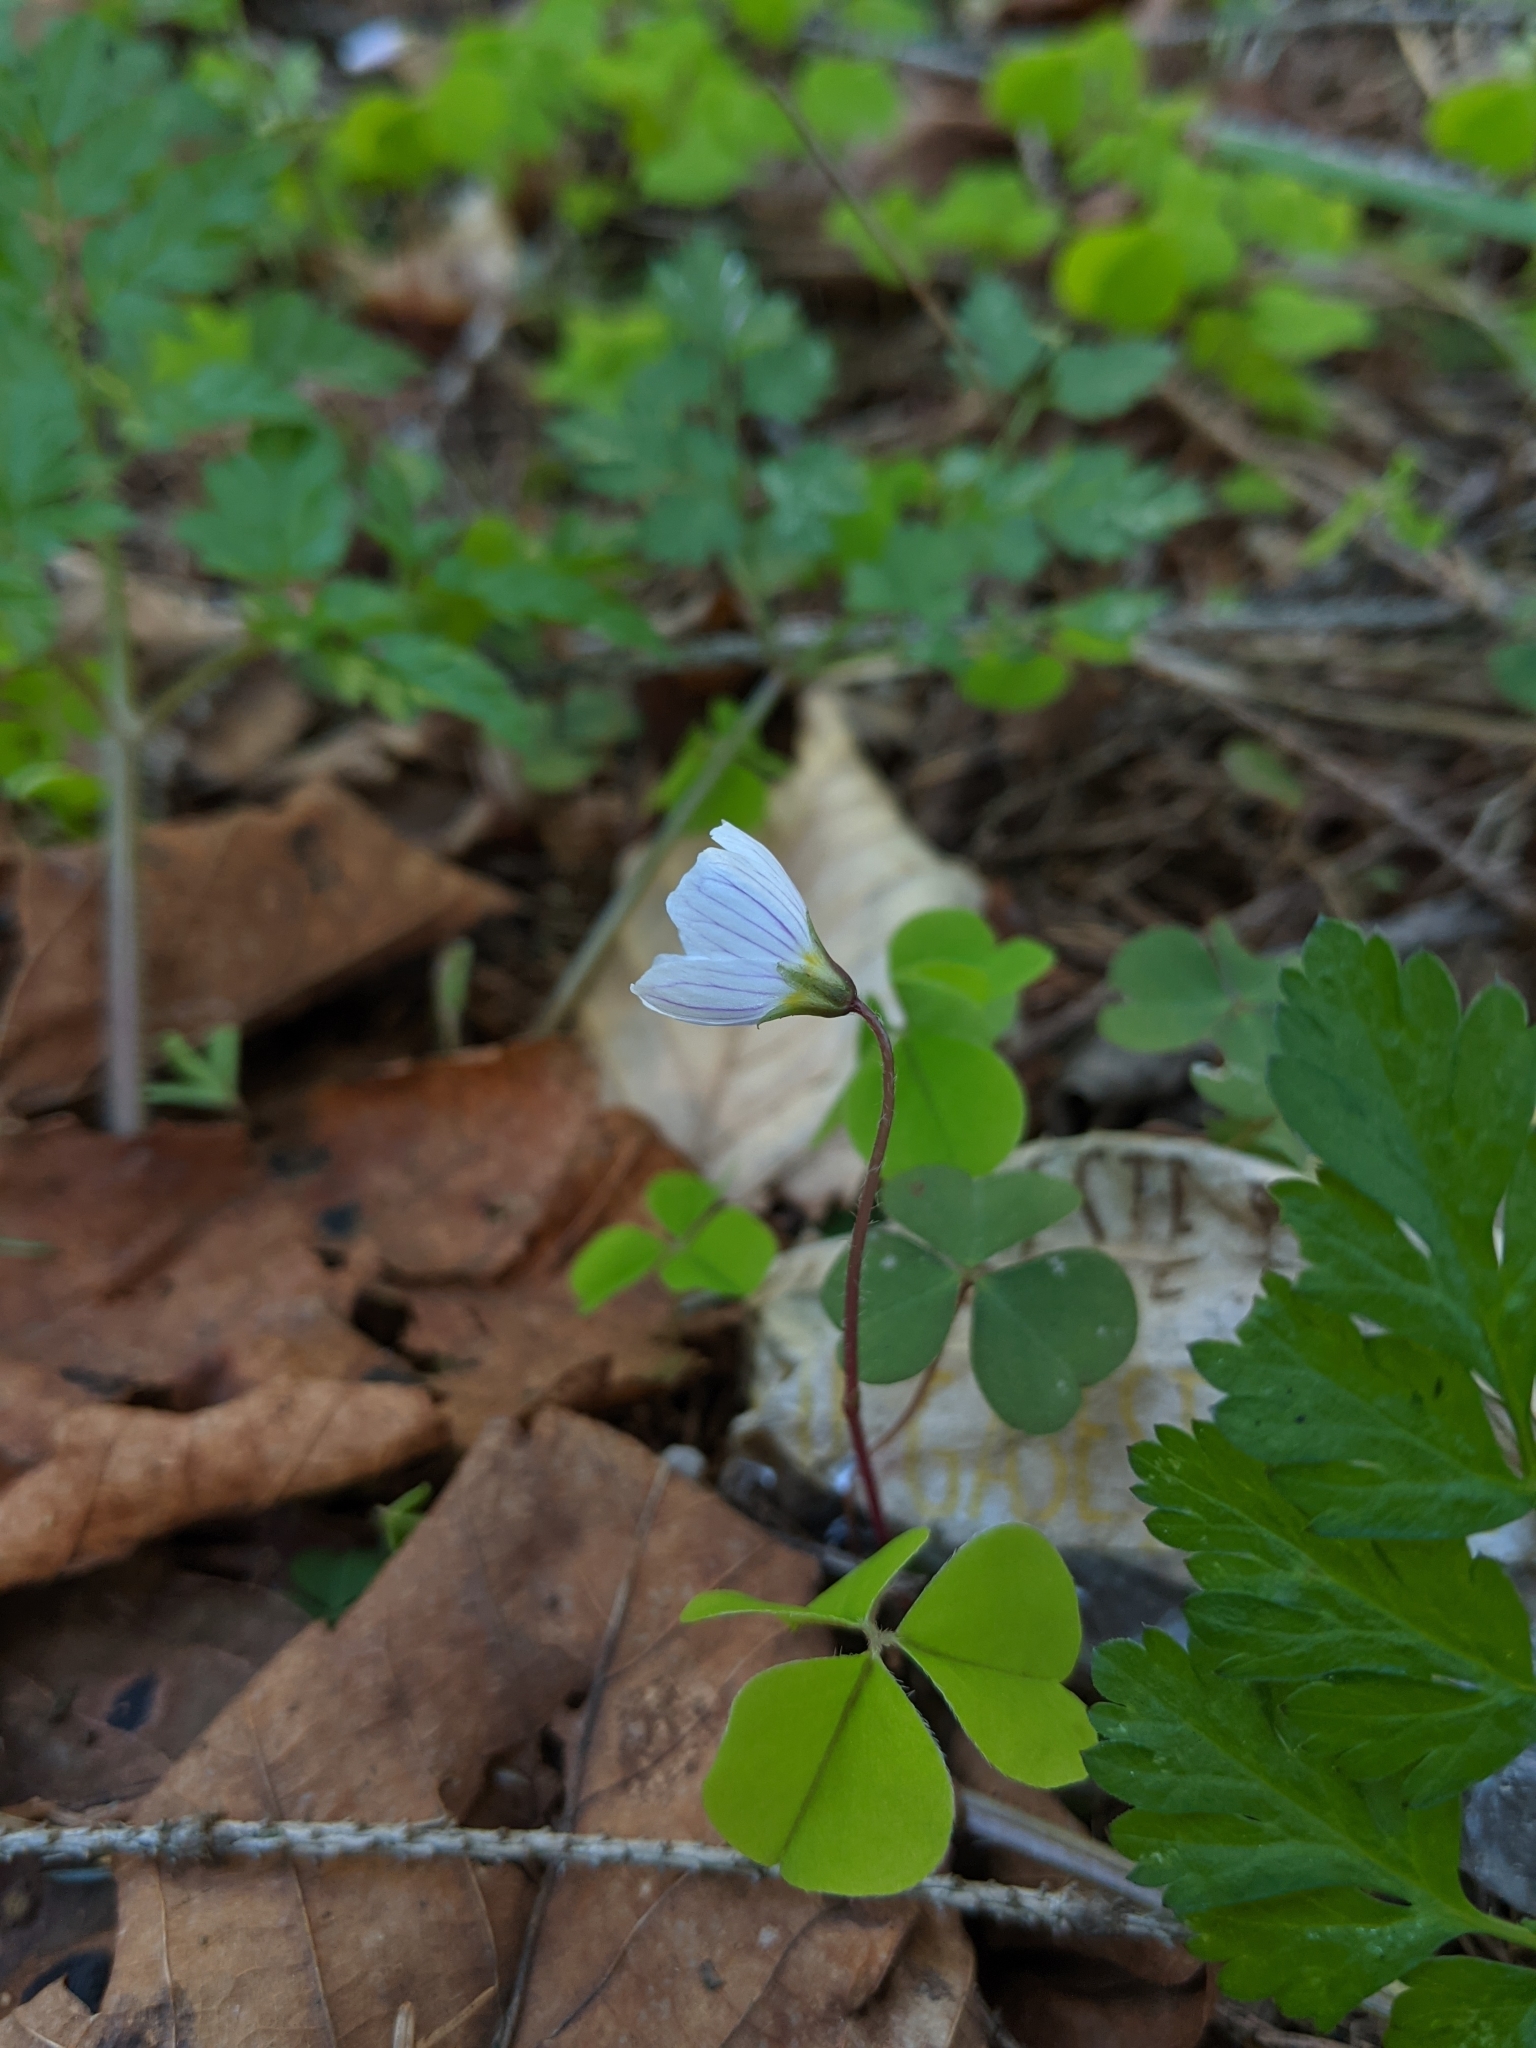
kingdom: Plantae
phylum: Tracheophyta
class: Magnoliopsida
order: Oxalidales
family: Oxalidaceae
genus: Oxalis
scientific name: Oxalis acetosella
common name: Wood-sorrel
